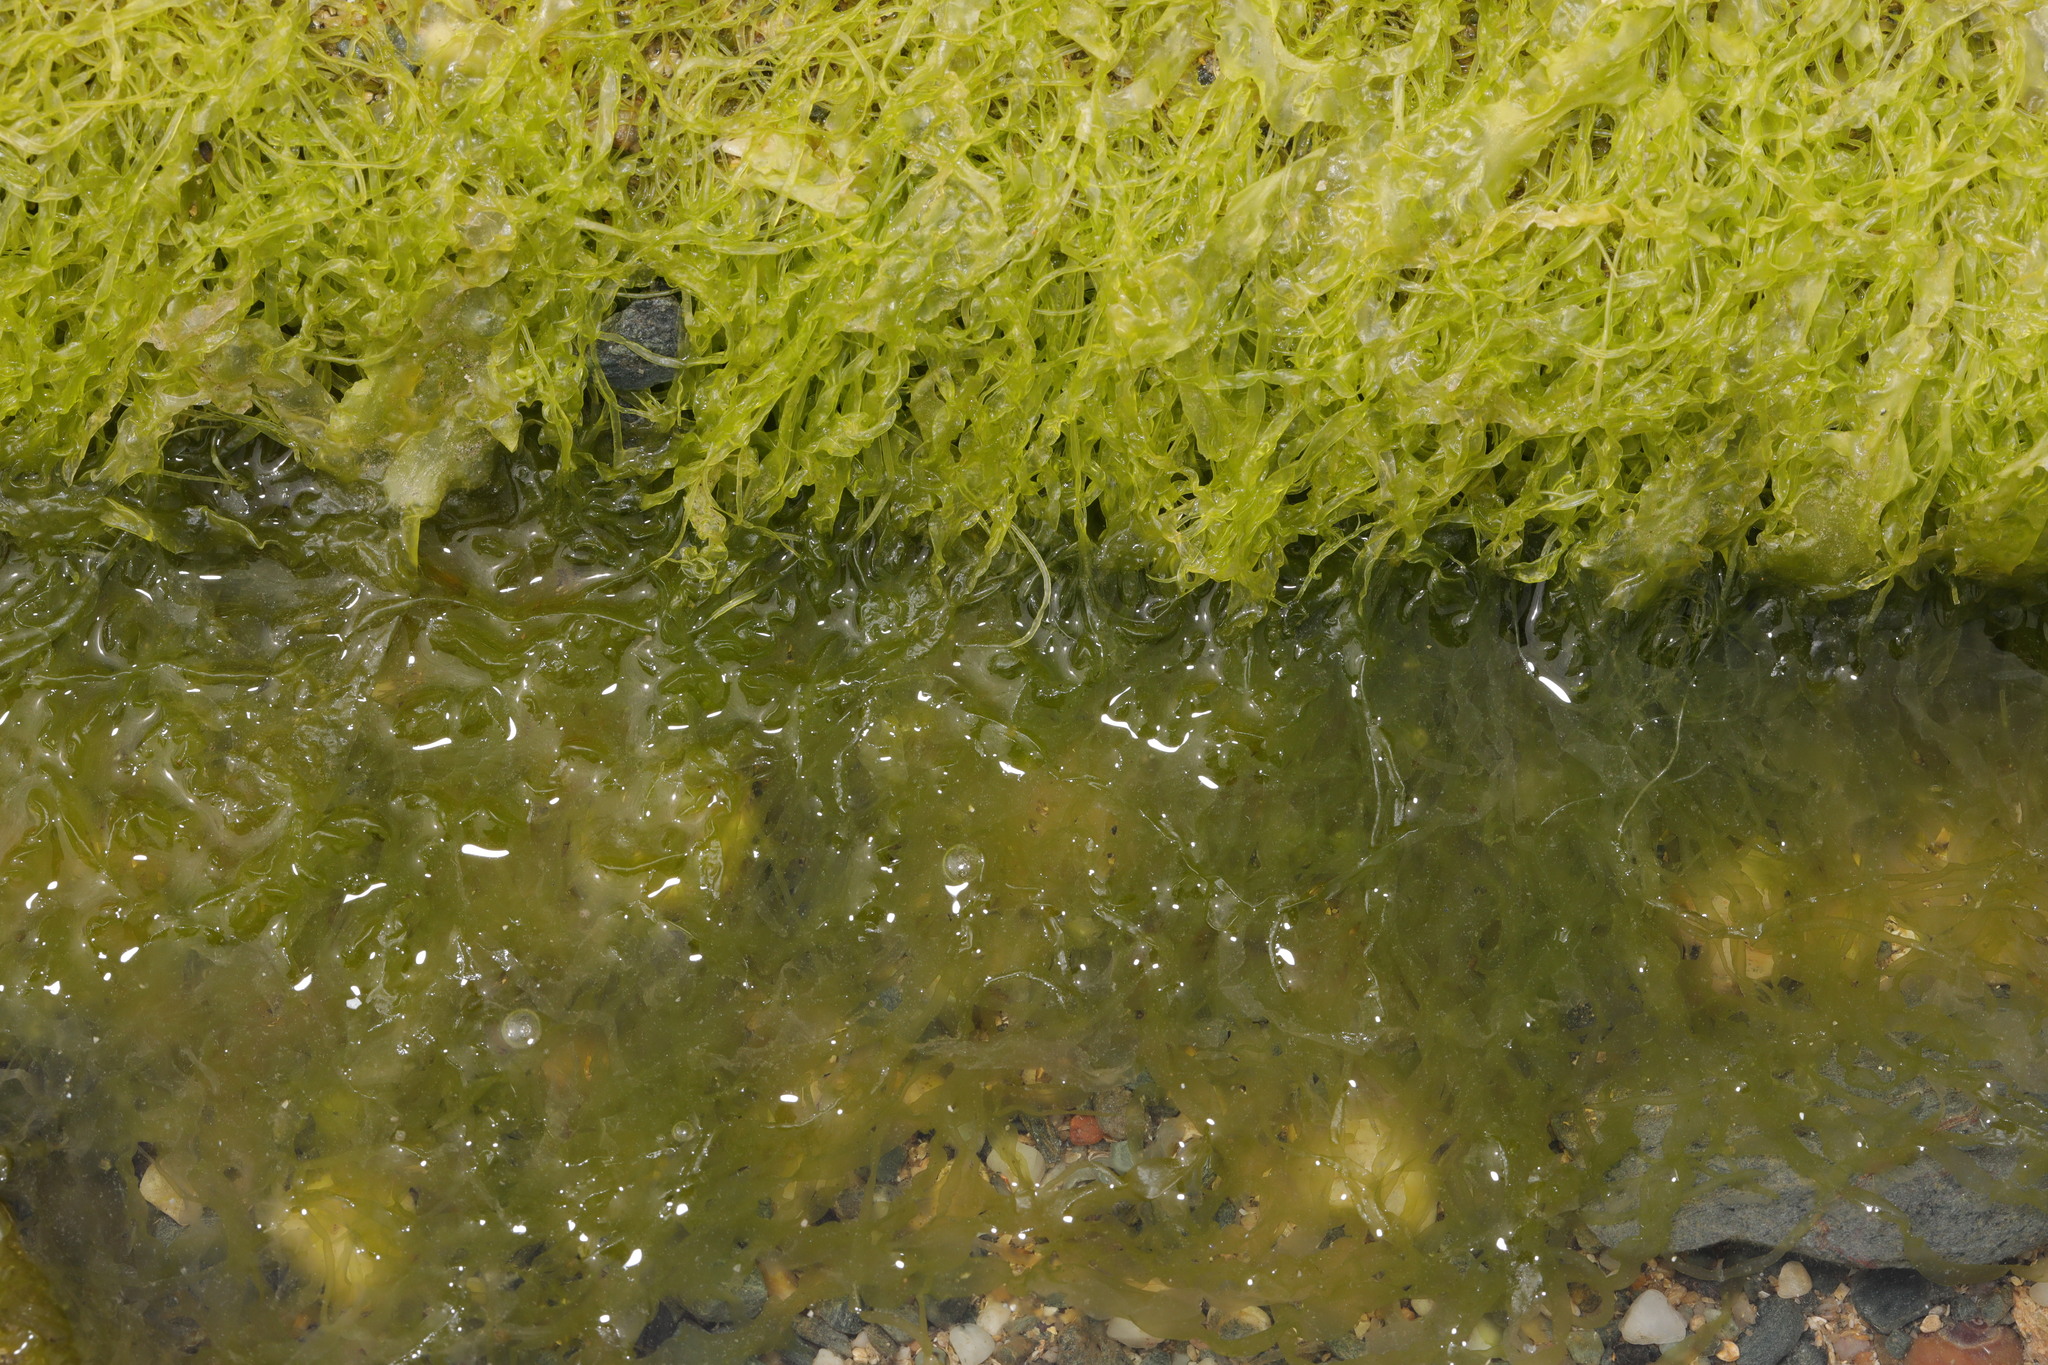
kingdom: Plantae
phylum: Chlorophyta
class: Ulvophyceae
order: Ulvales
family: Ulvaceae
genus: Ulva
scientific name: Ulva intestinalis
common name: Gut weed
